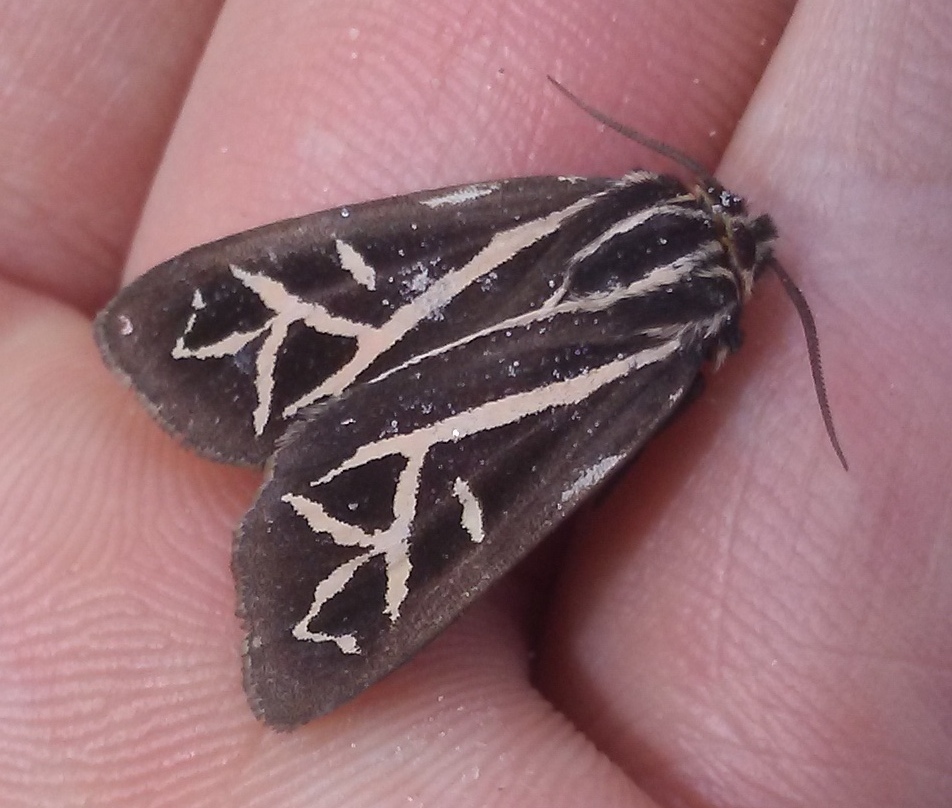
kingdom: Animalia
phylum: Arthropoda
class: Insecta
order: Lepidoptera
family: Erebidae
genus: Apantesis
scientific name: Apantesis
